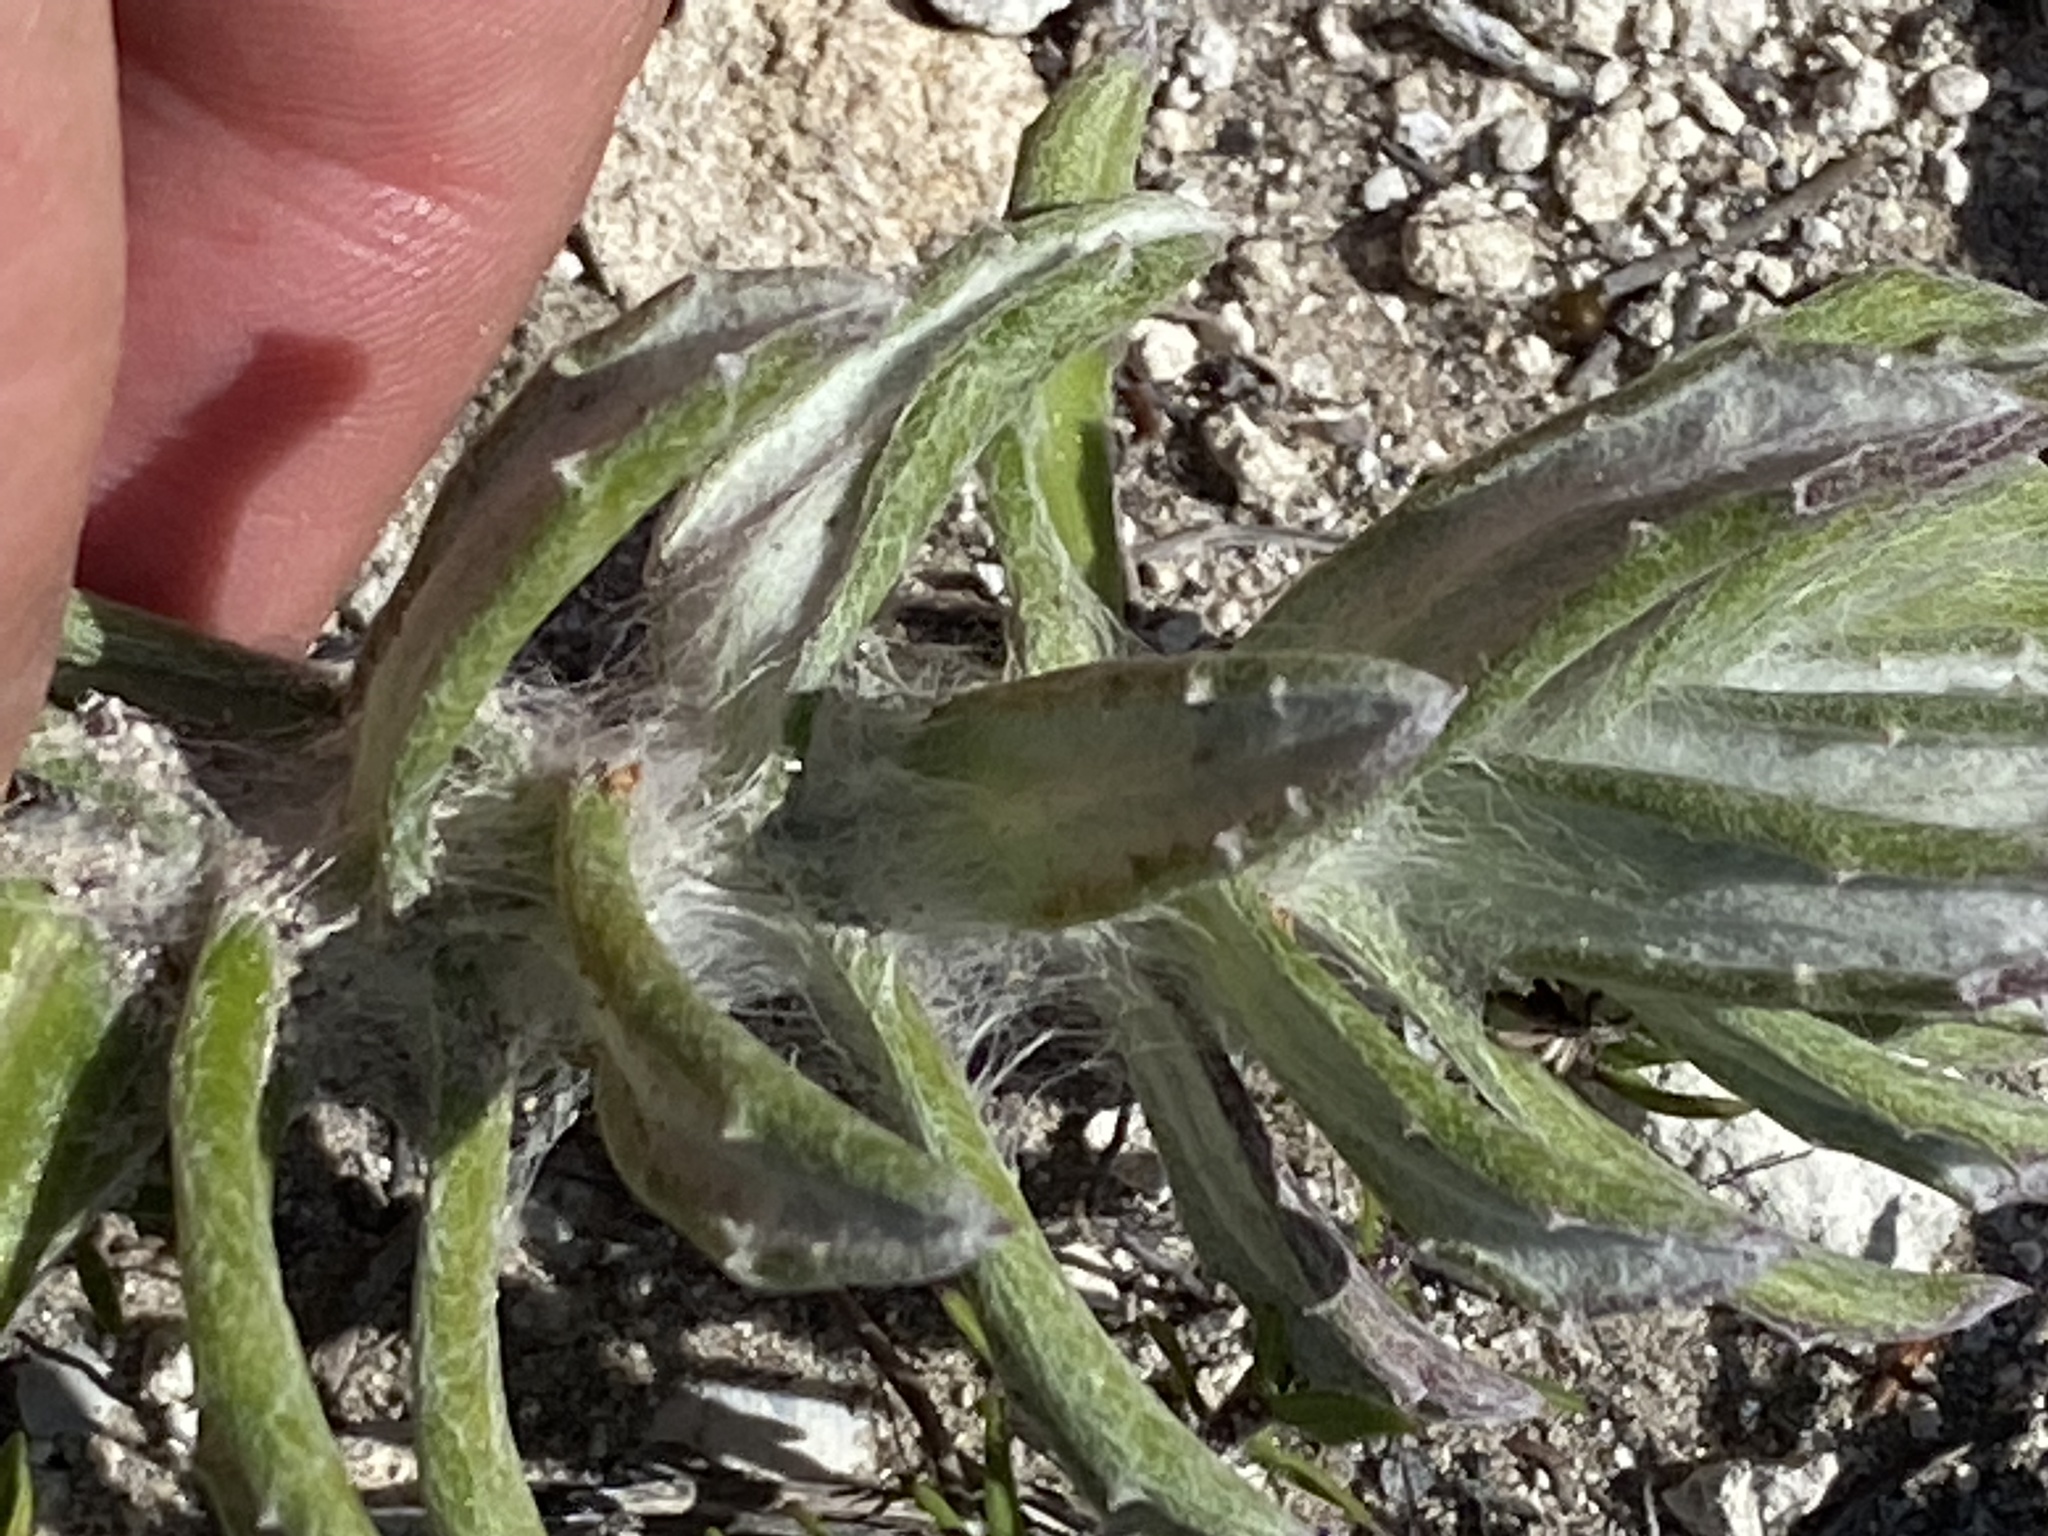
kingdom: Plantae
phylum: Tracheophyta
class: Magnoliopsida
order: Asterales
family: Asteraceae
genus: Senecio
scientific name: Senecio arniciflorus
